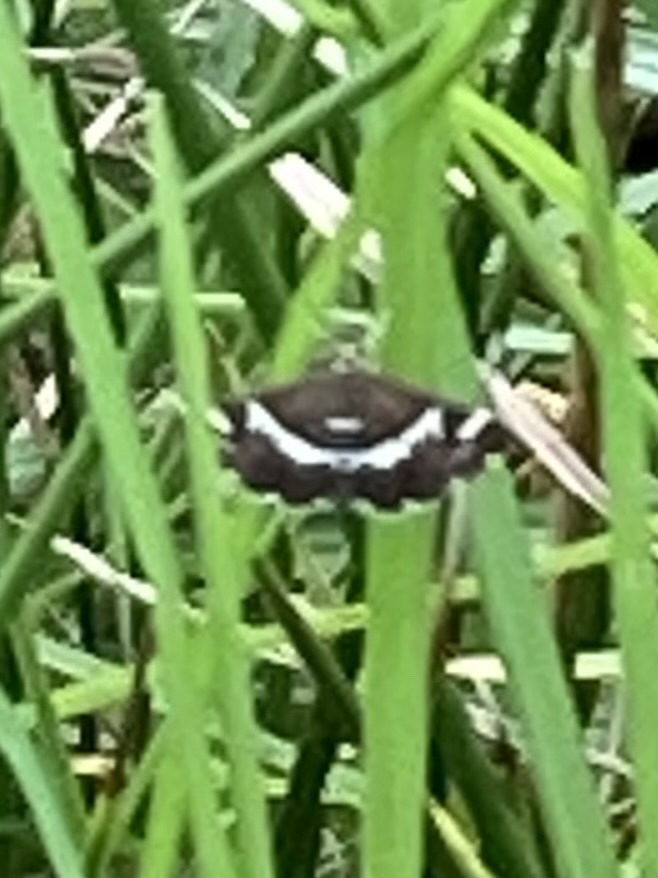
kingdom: Animalia
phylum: Arthropoda
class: Insecta
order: Lepidoptera
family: Crambidae
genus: Spoladea
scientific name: Spoladea recurvalis
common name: Beet webworm moth
